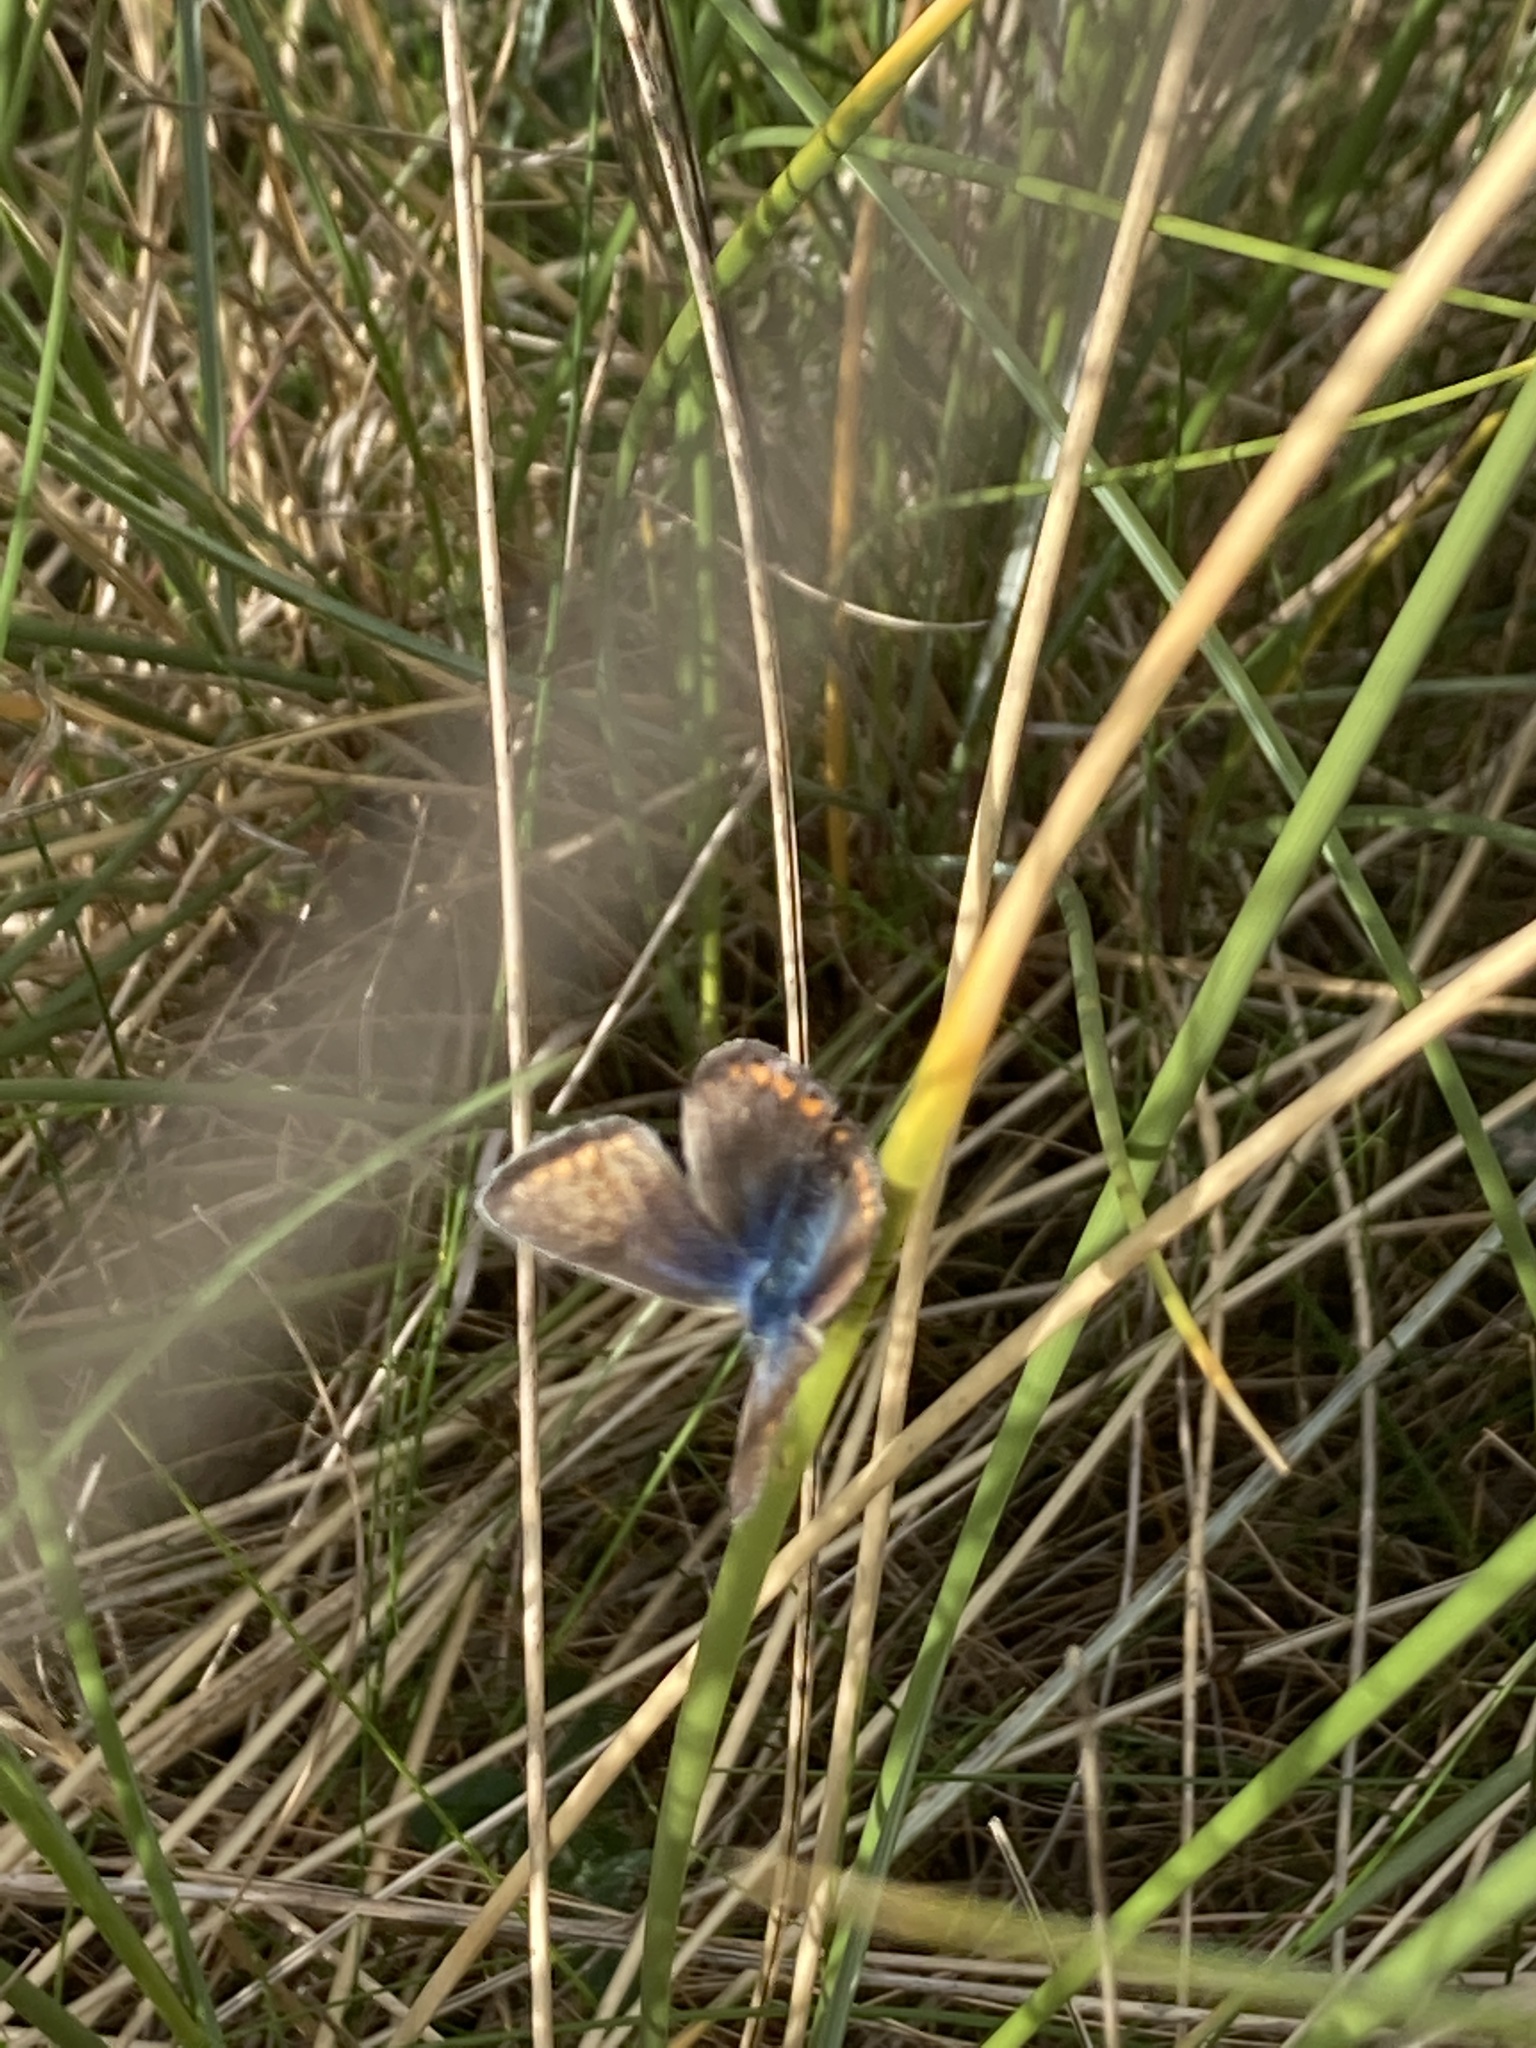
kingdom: Animalia
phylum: Arthropoda
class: Insecta
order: Lepidoptera
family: Lycaenidae
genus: Polyommatus
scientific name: Polyommatus icarus
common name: Common blue
